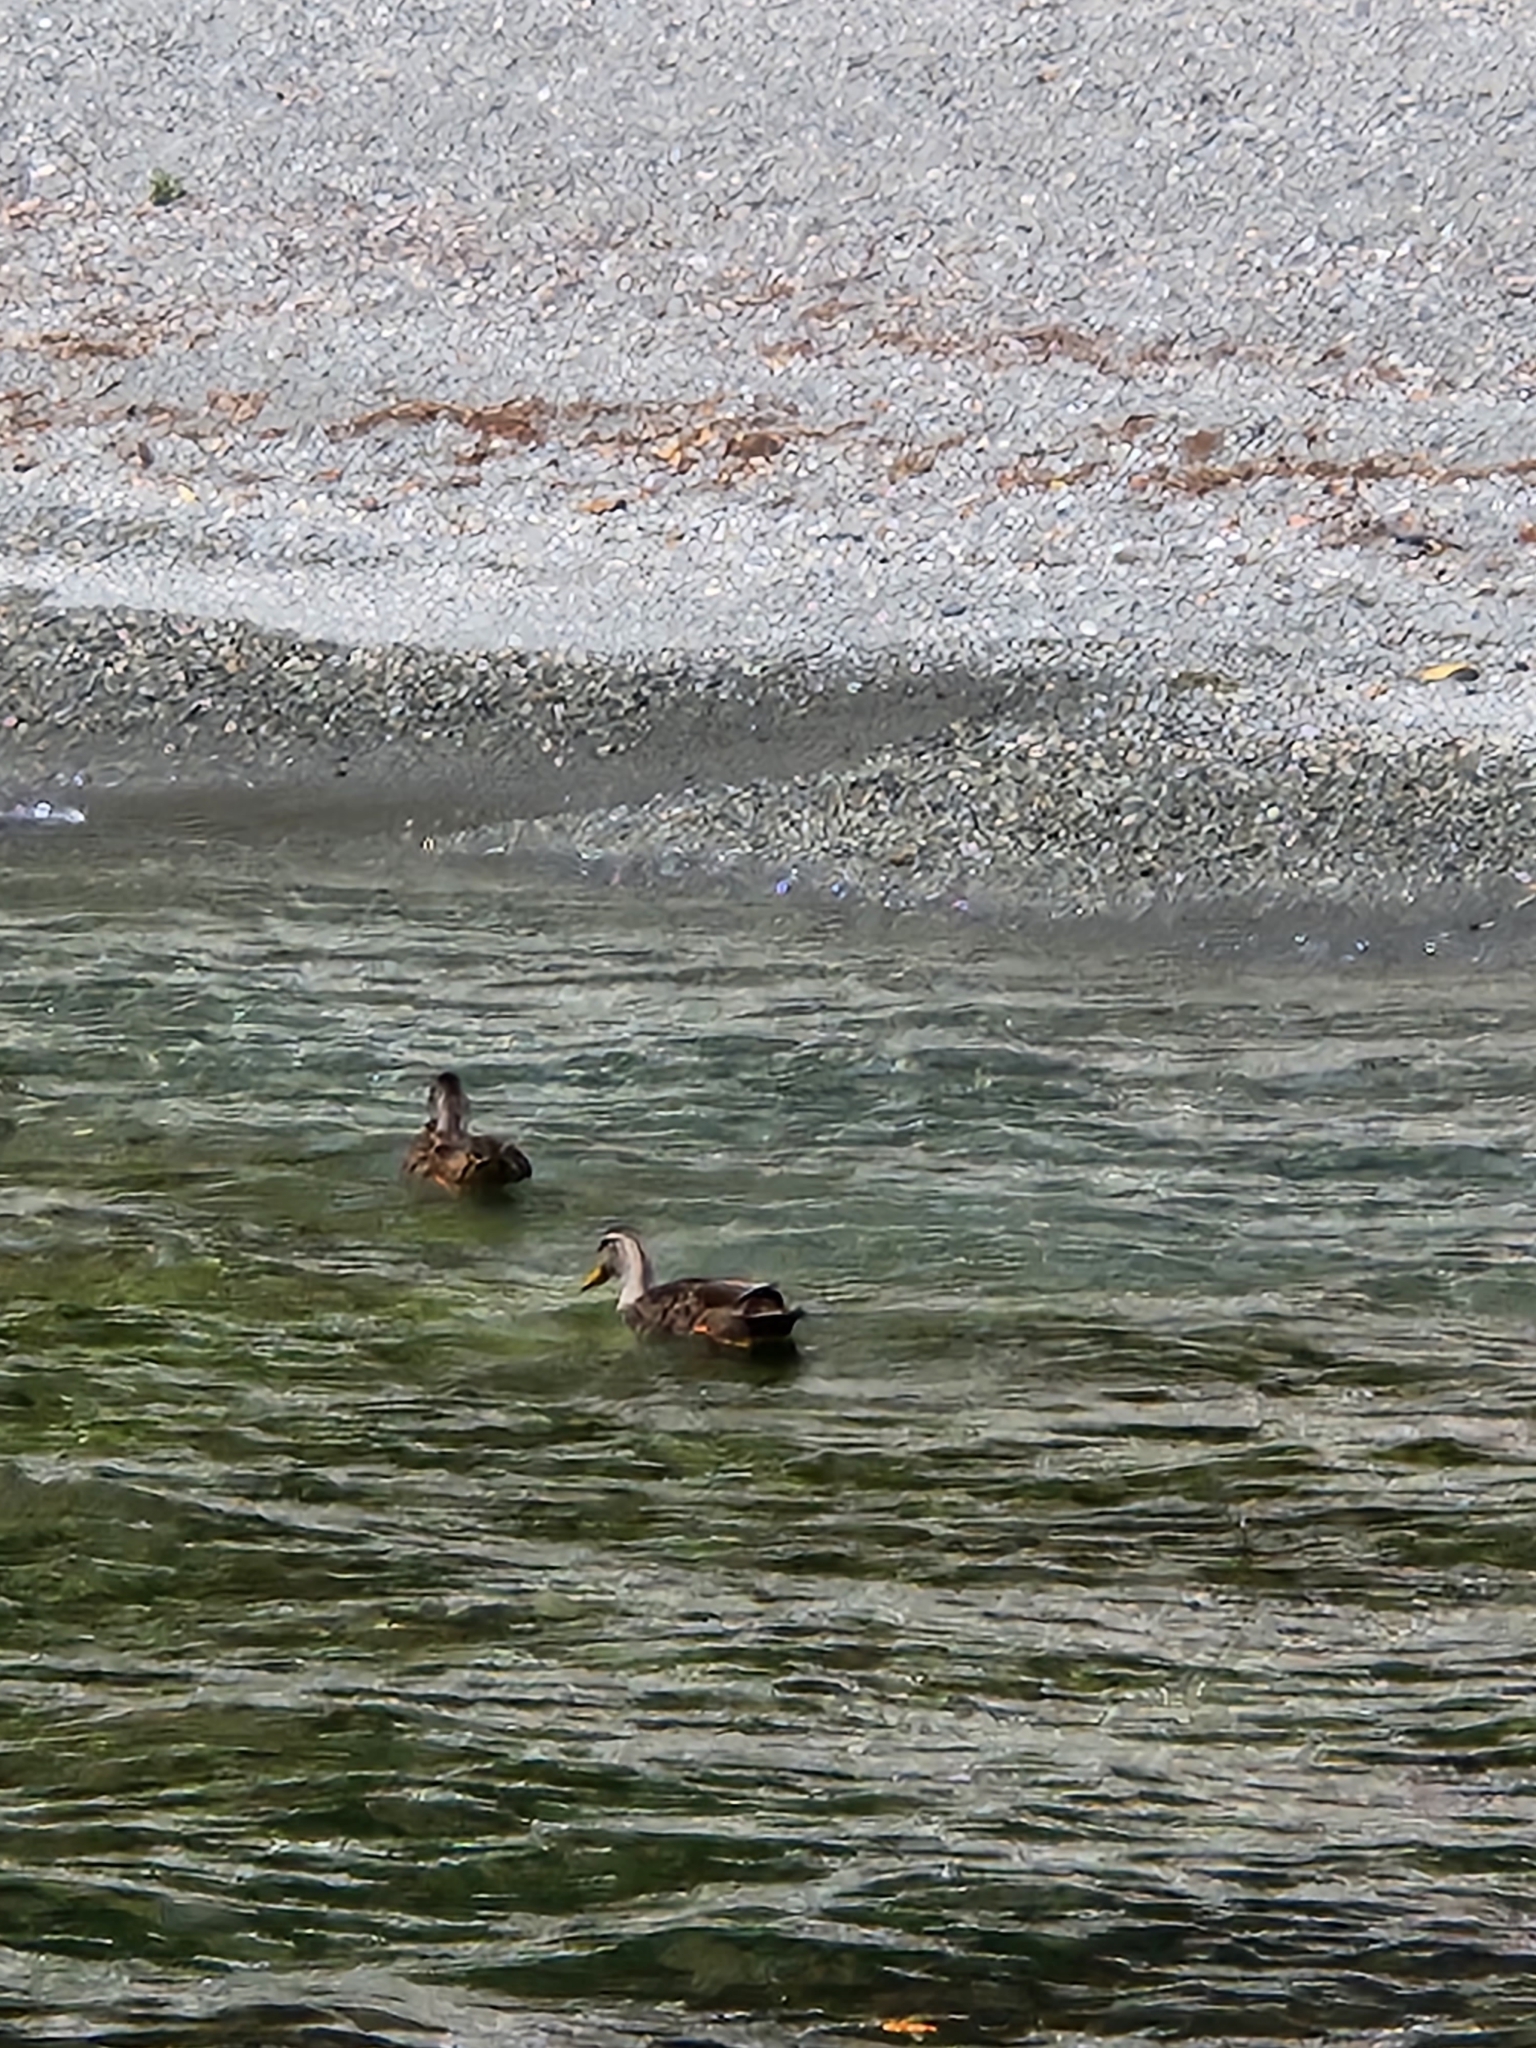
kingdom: Animalia
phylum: Chordata
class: Aves
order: Anseriformes
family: Anatidae
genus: Anas
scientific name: Anas
